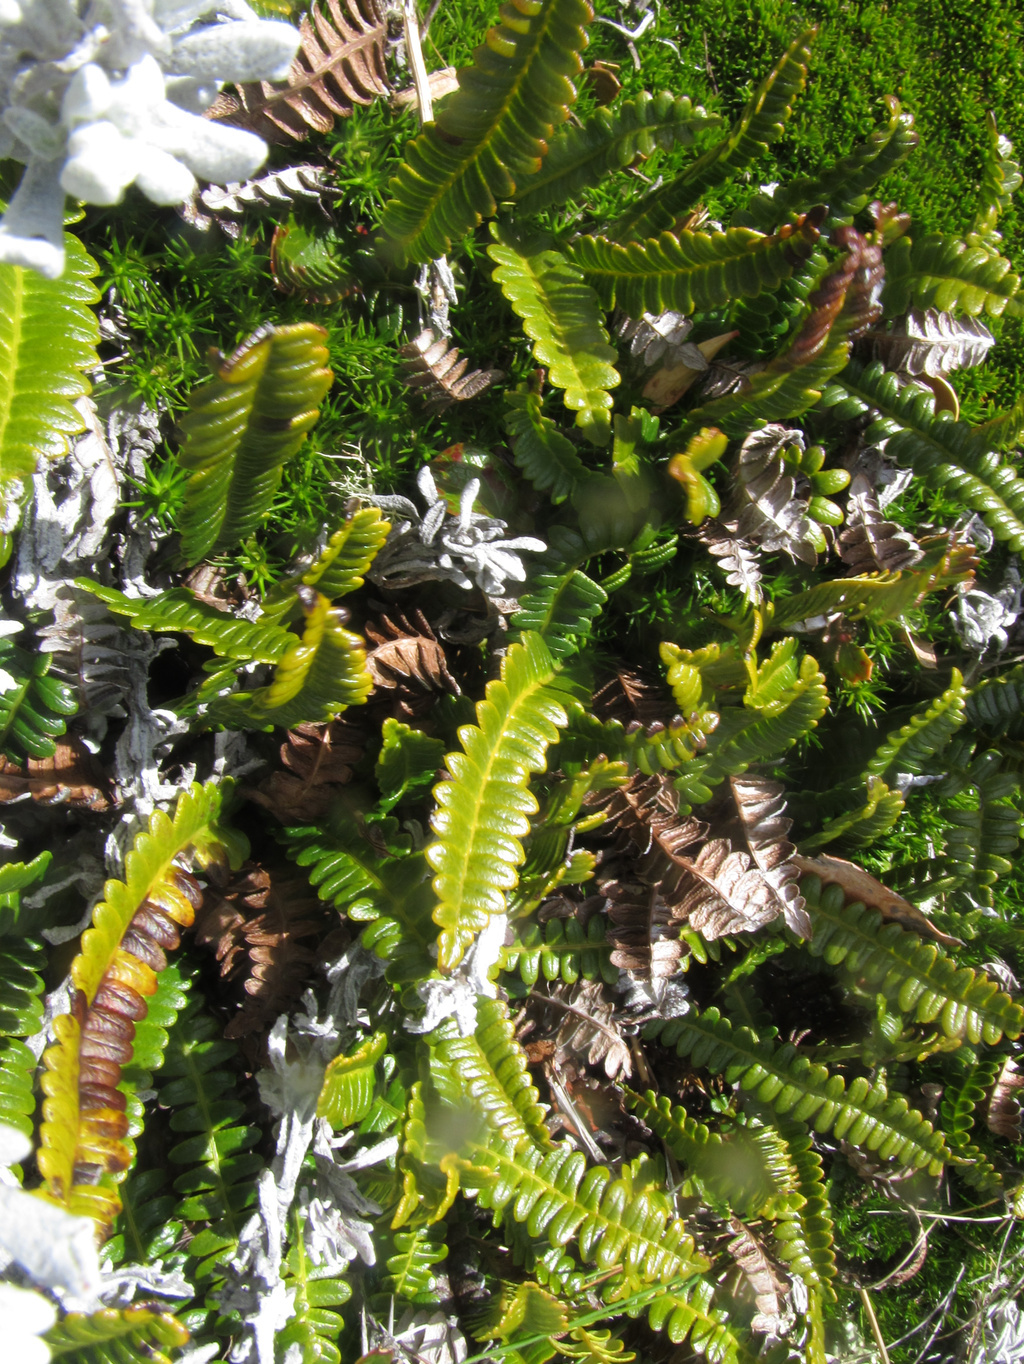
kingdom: Plantae
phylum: Tracheophyta
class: Polypodiopsida
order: Polypodiales
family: Blechnaceae
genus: Austroblechnum
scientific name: Austroblechnum penna-marina
